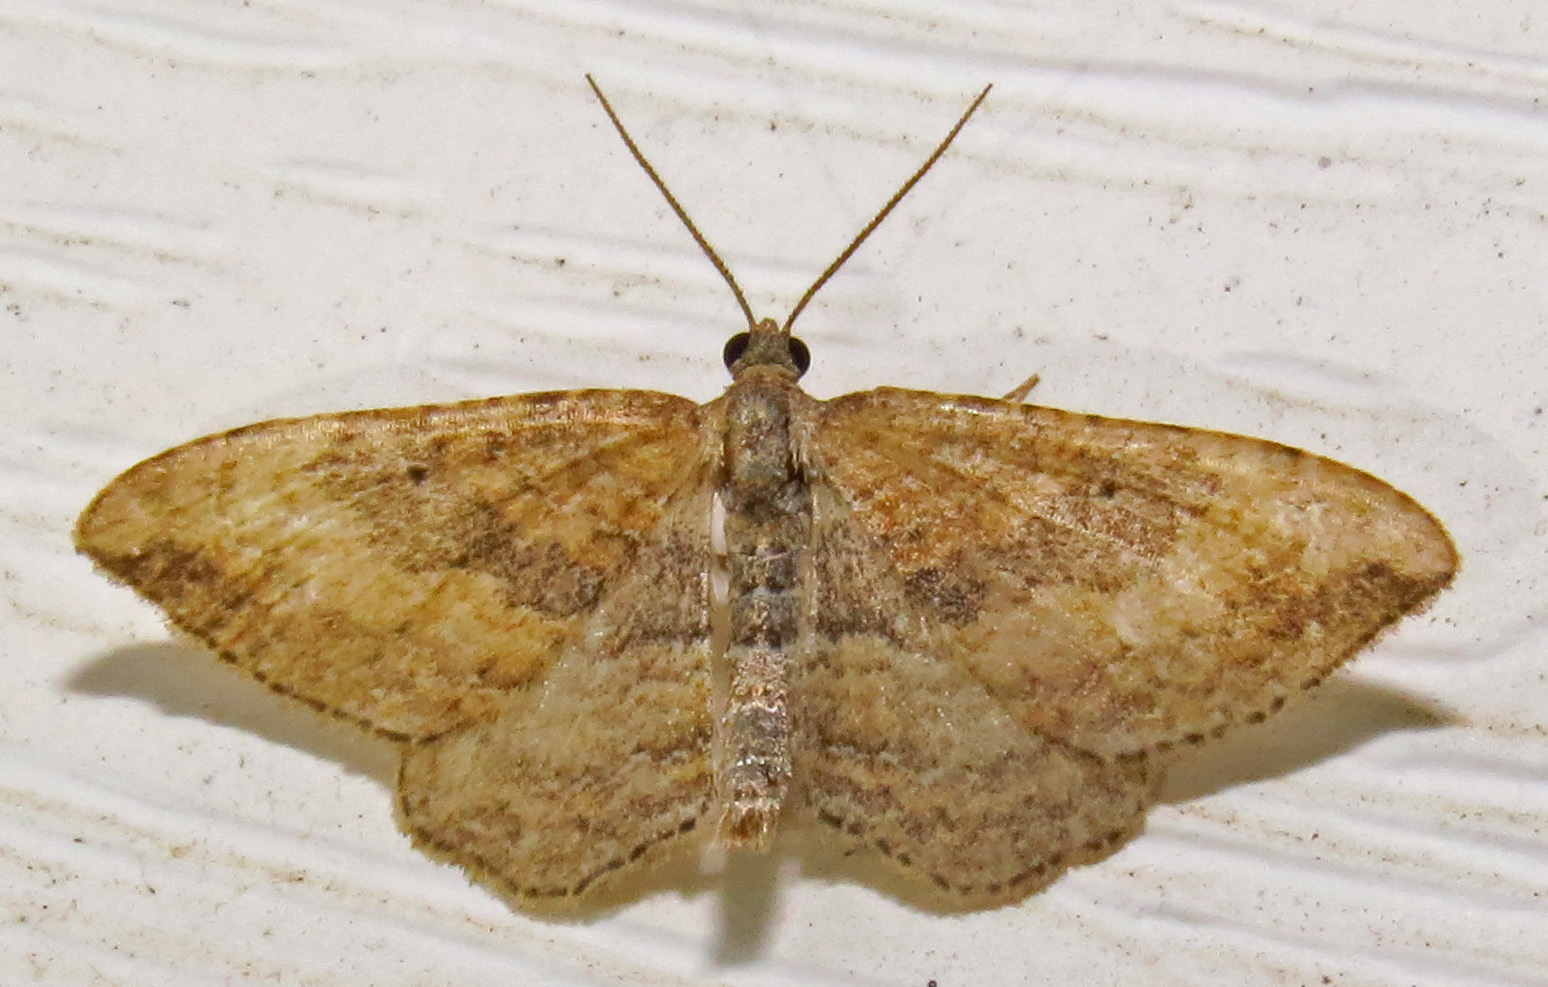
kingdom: Animalia
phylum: Arthropoda
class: Insecta
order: Lepidoptera
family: Geometridae
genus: Orthonama
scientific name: Orthonama obstipata
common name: The gem
